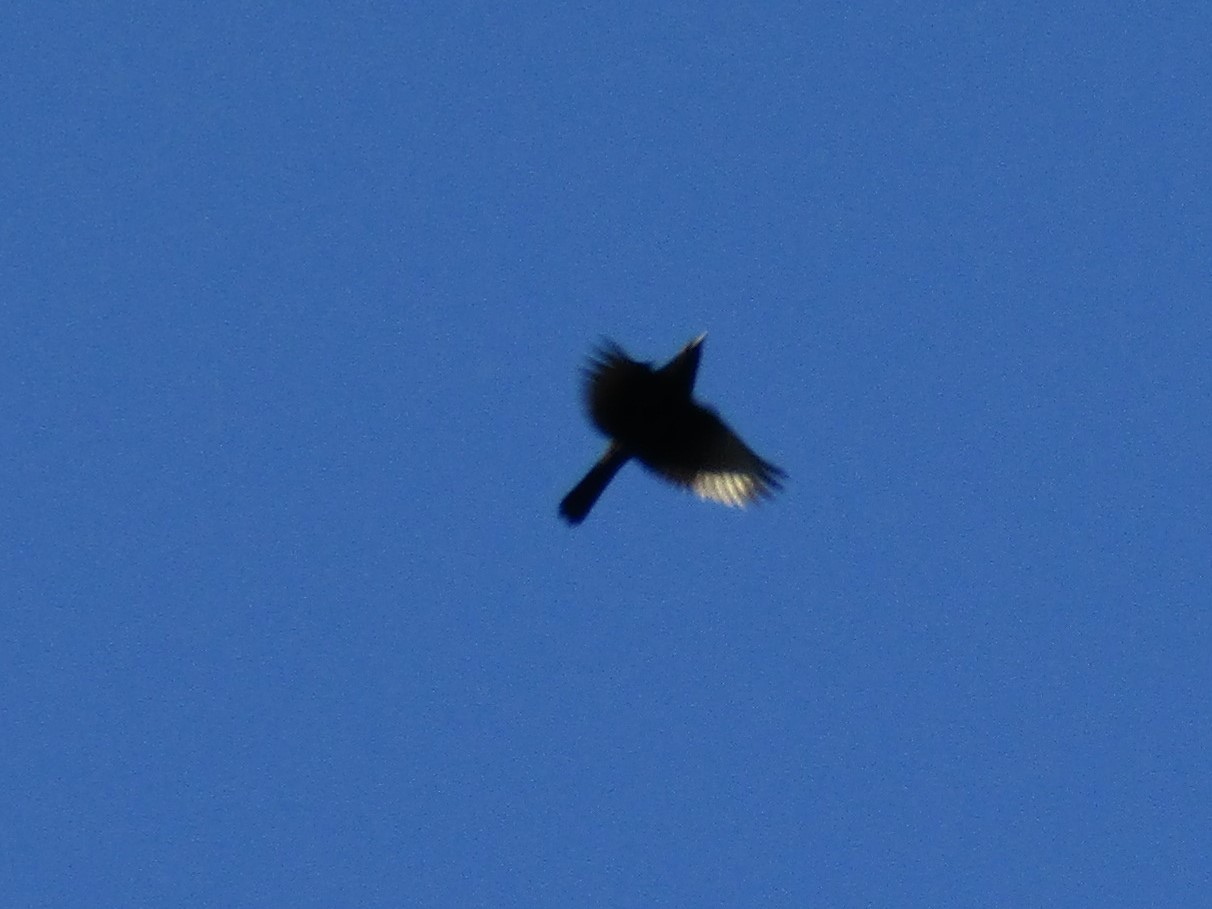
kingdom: Animalia
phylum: Chordata
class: Aves
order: Passeriformes
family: Icteridae
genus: Cacicus
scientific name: Cacicus haemorrhous
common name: Red-rumped cacique
